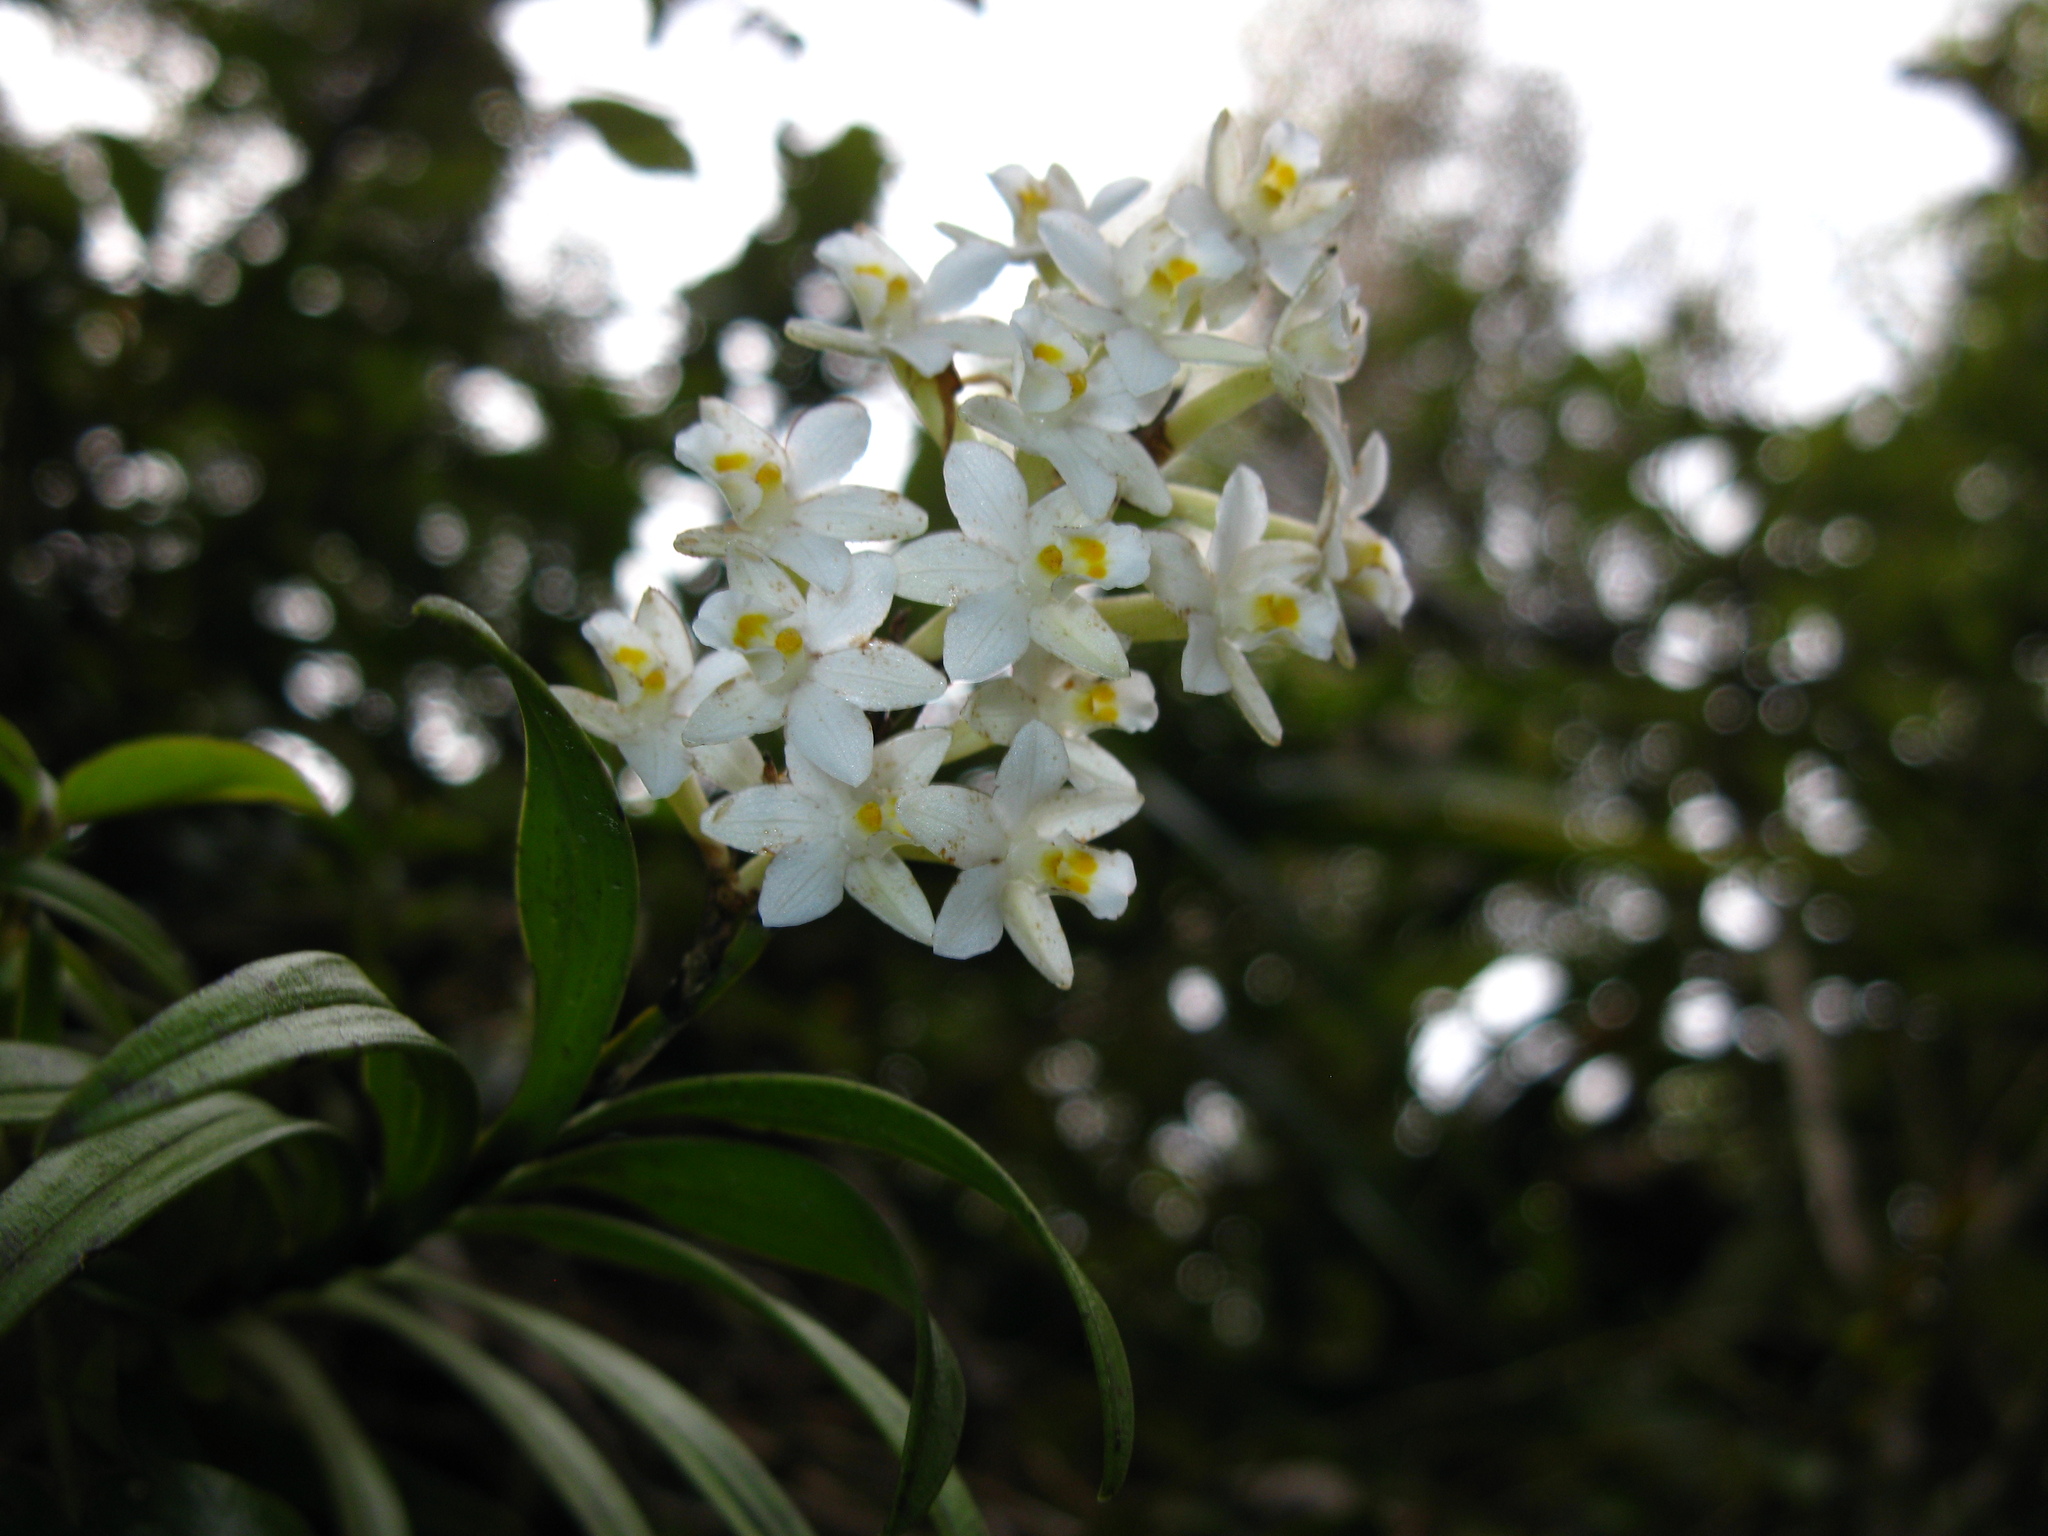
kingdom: Plantae
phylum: Tracheophyta
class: Liliopsida
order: Asparagales
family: Orchidaceae
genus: Earina
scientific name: Earina autumnalis
